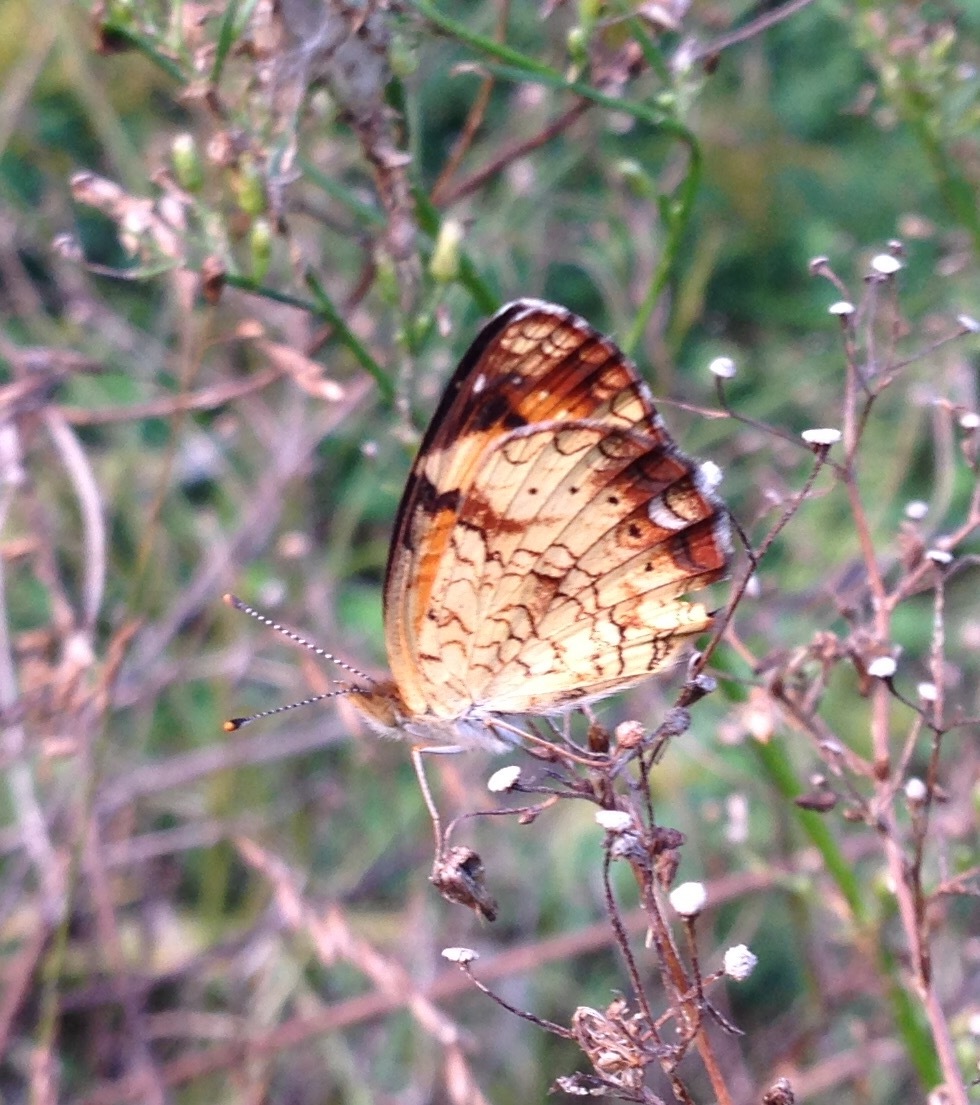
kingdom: Animalia
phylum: Arthropoda
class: Insecta
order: Lepidoptera
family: Nymphalidae
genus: Phyciodes
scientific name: Phyciodes tharos
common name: Pearl crescent
